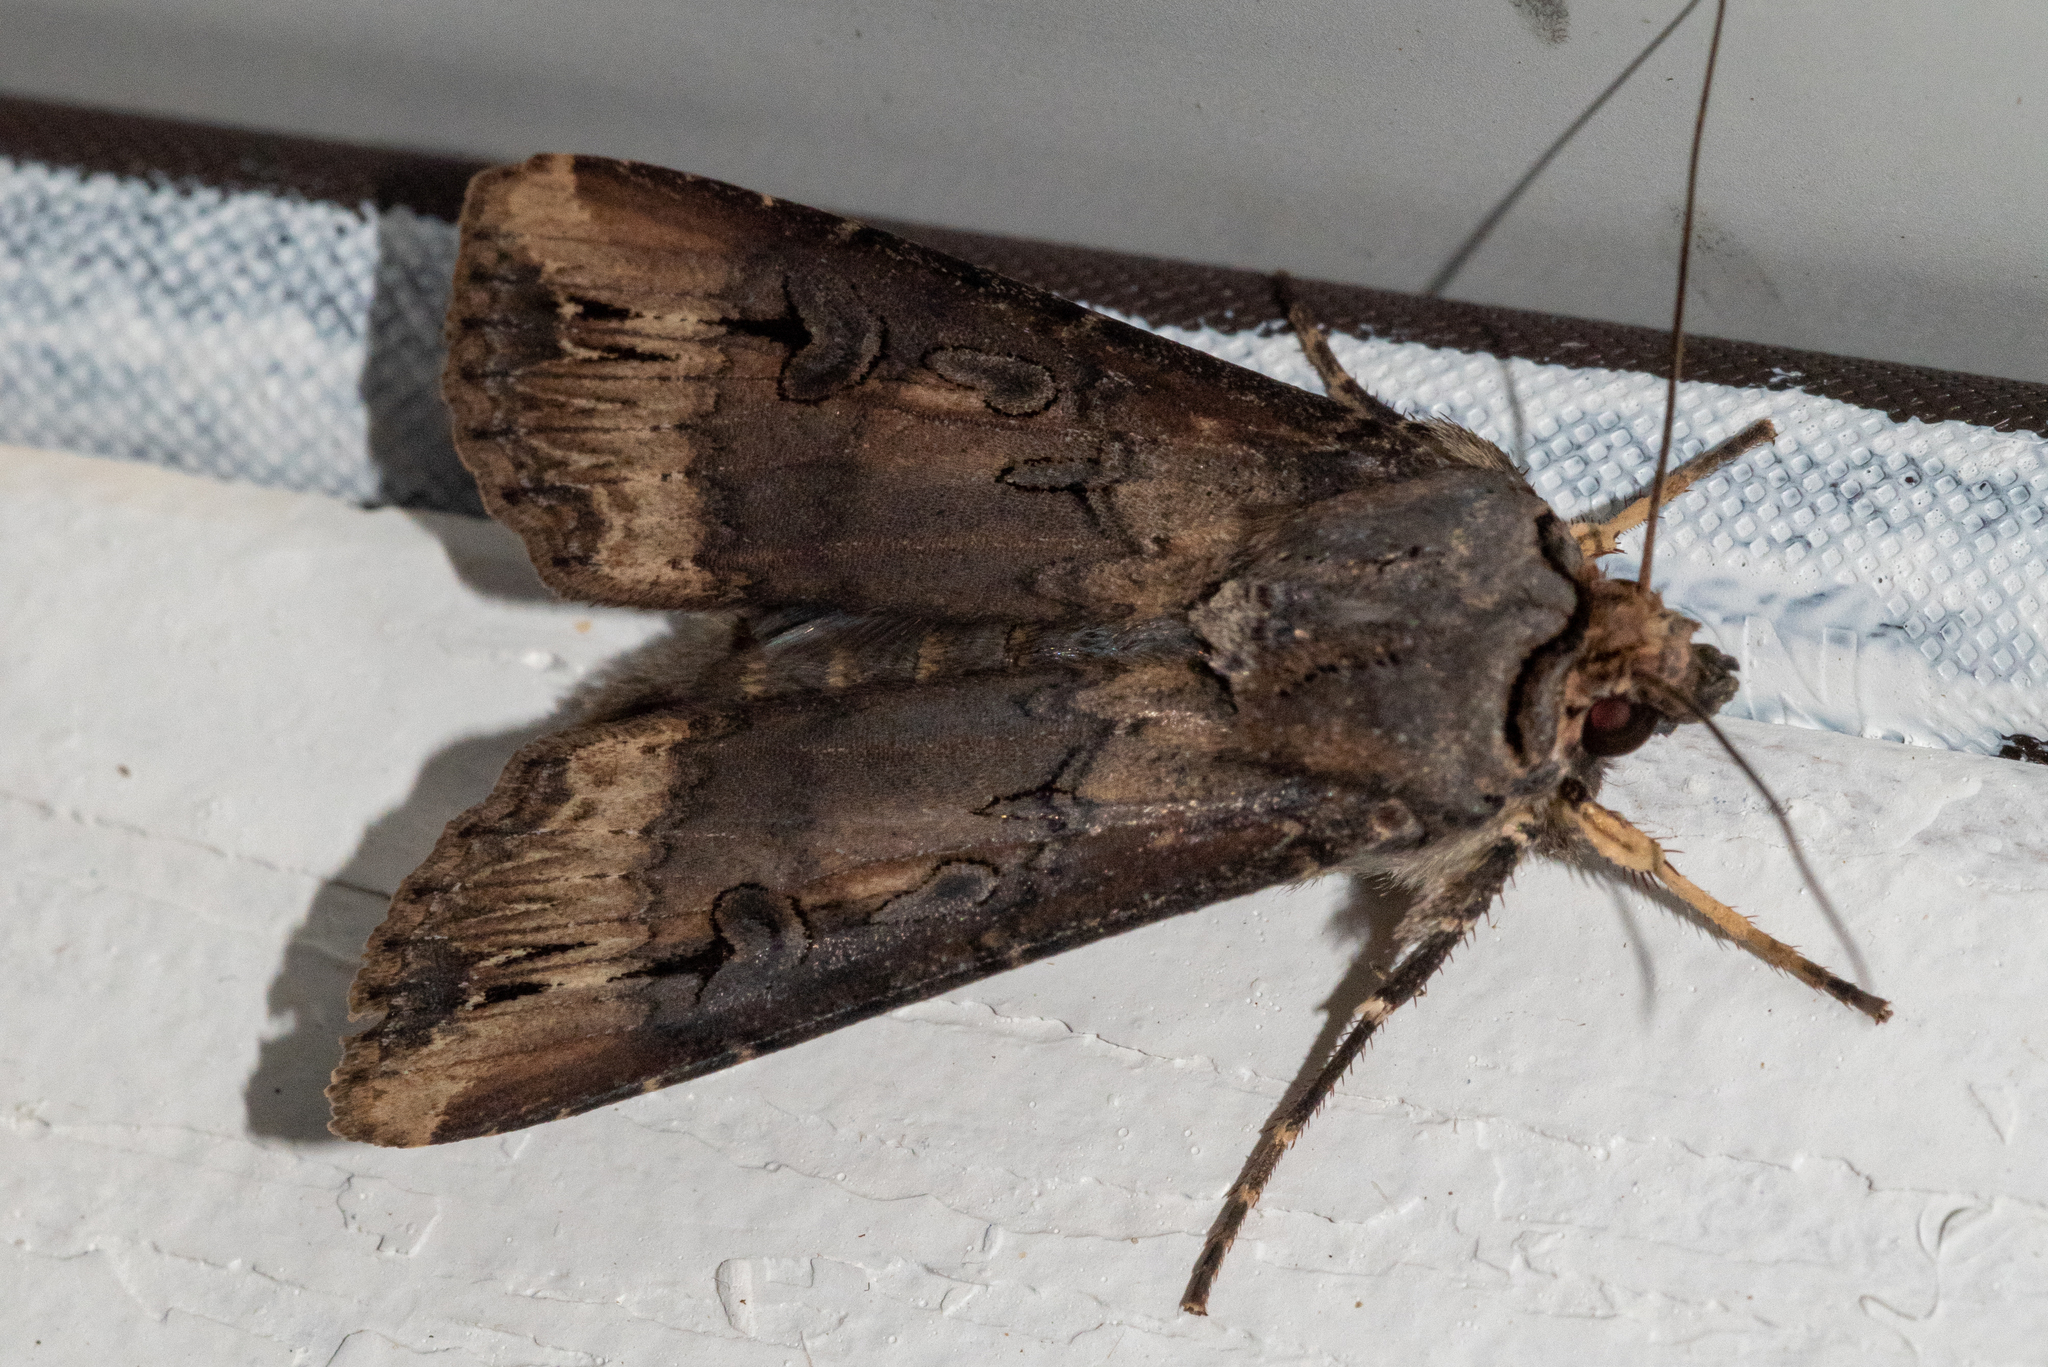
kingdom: Animalia
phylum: Arthropoda
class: Insecta
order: Lepidoptera
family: Noctuidae
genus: Agrotis
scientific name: Agrotis ipsilon
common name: Dark sword-grass
